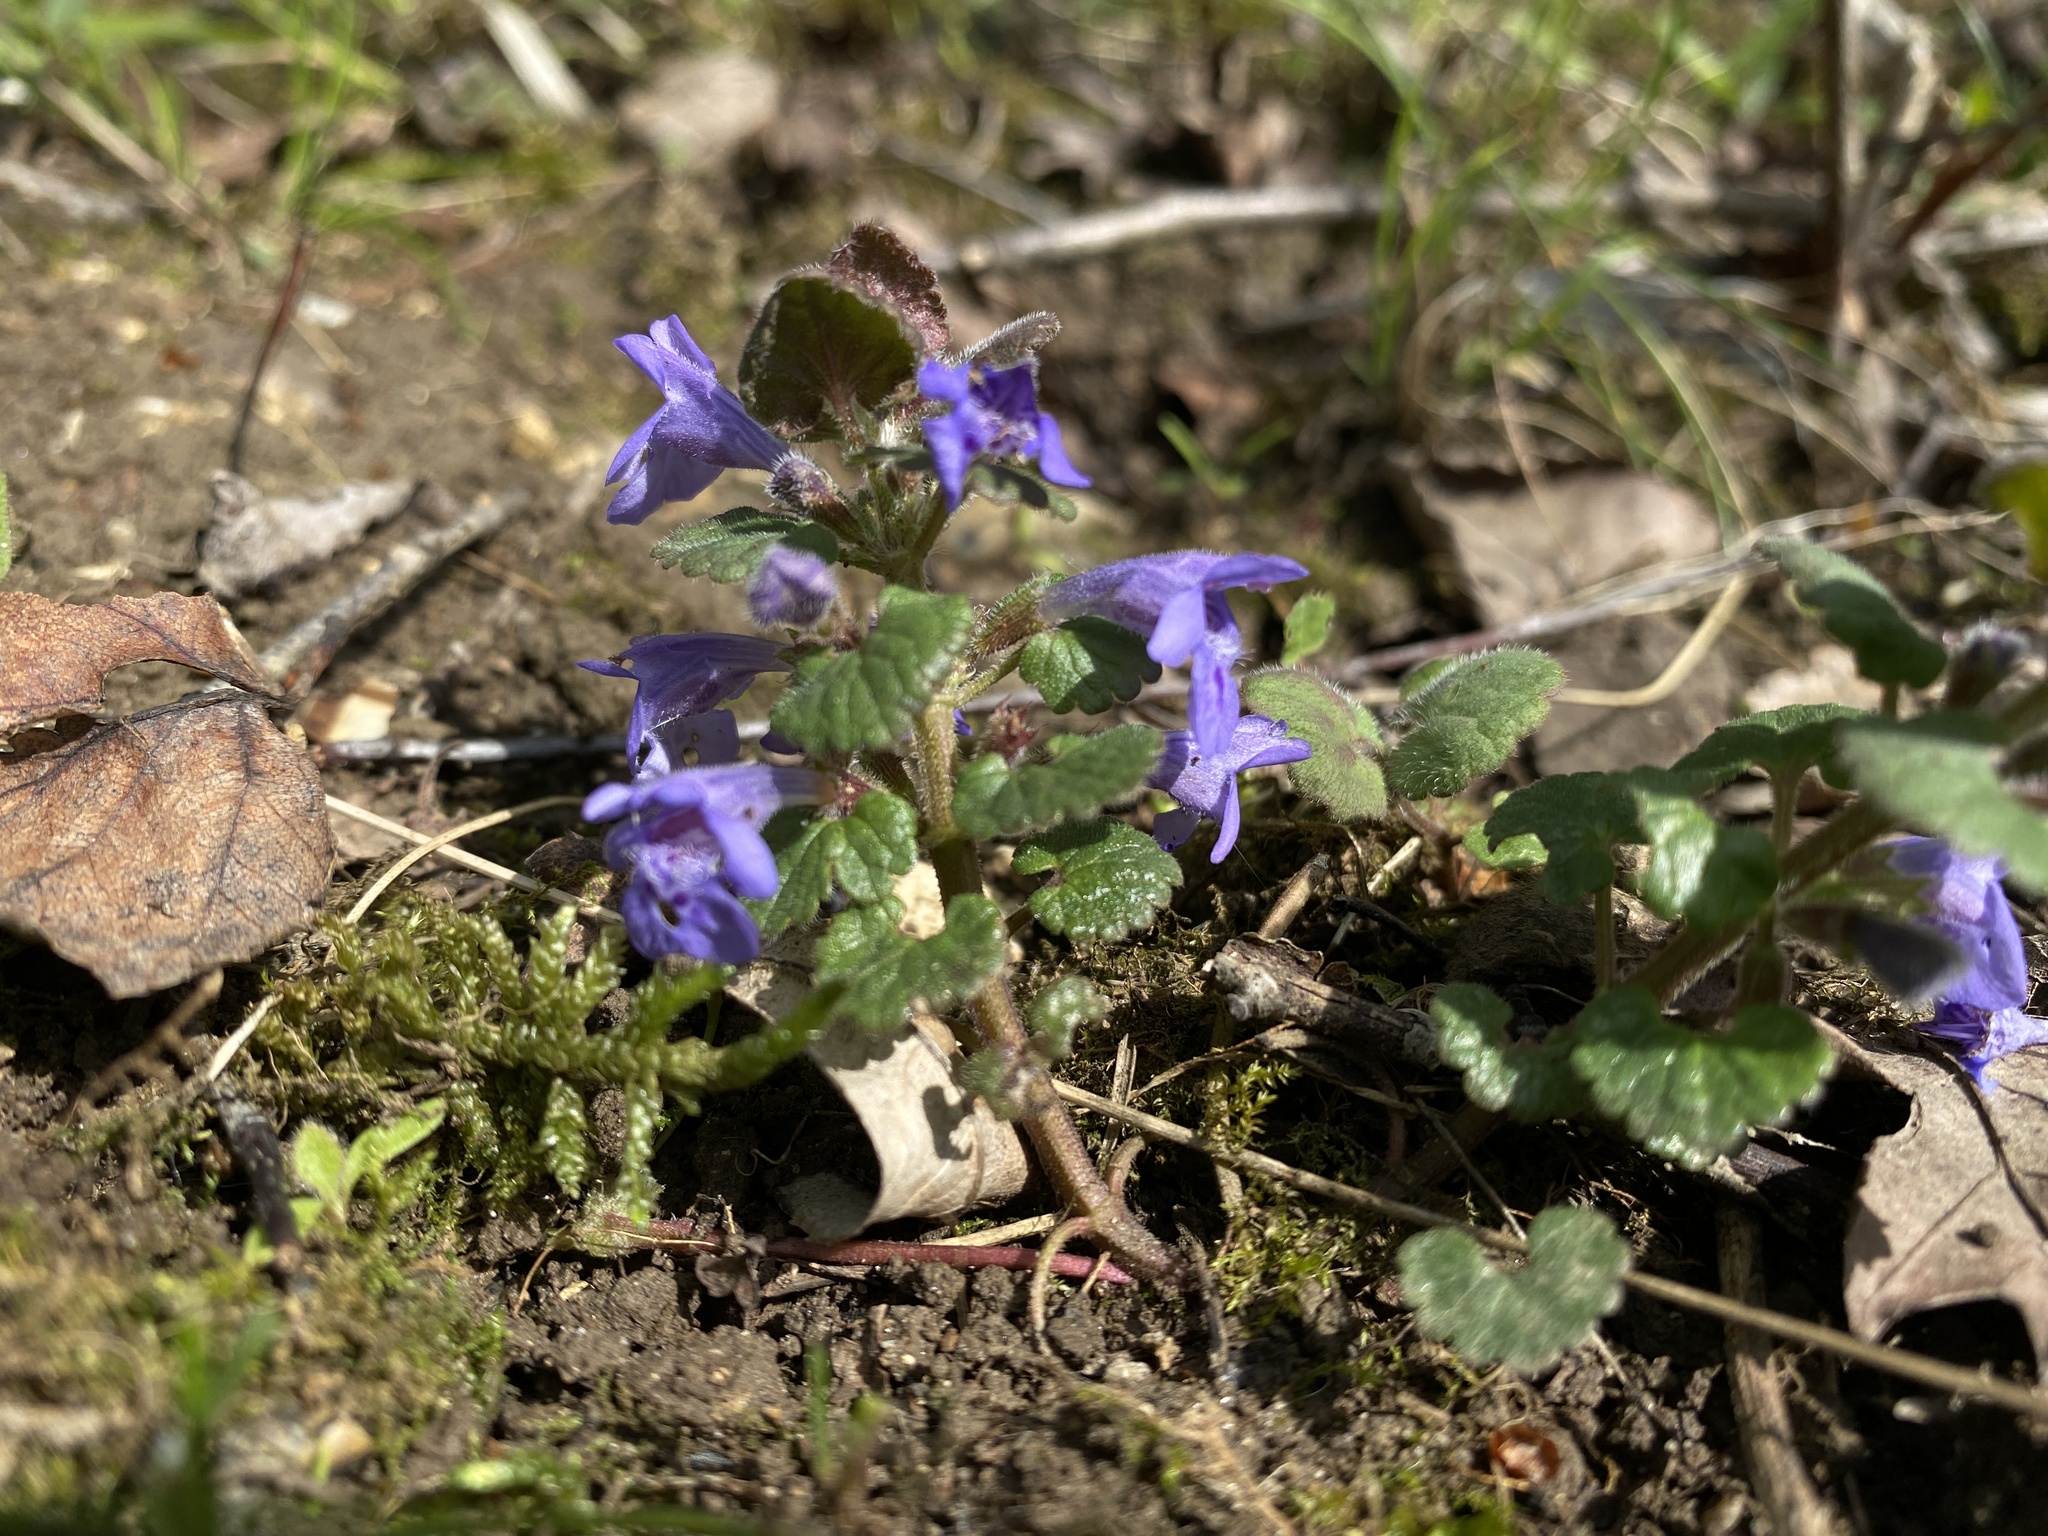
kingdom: Plantae
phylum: Tracheophyta
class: Magnoliopsida
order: Lamiales
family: Lamiaceae
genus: Glechoma
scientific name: Glechoma hederacea
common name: Ground ivy
